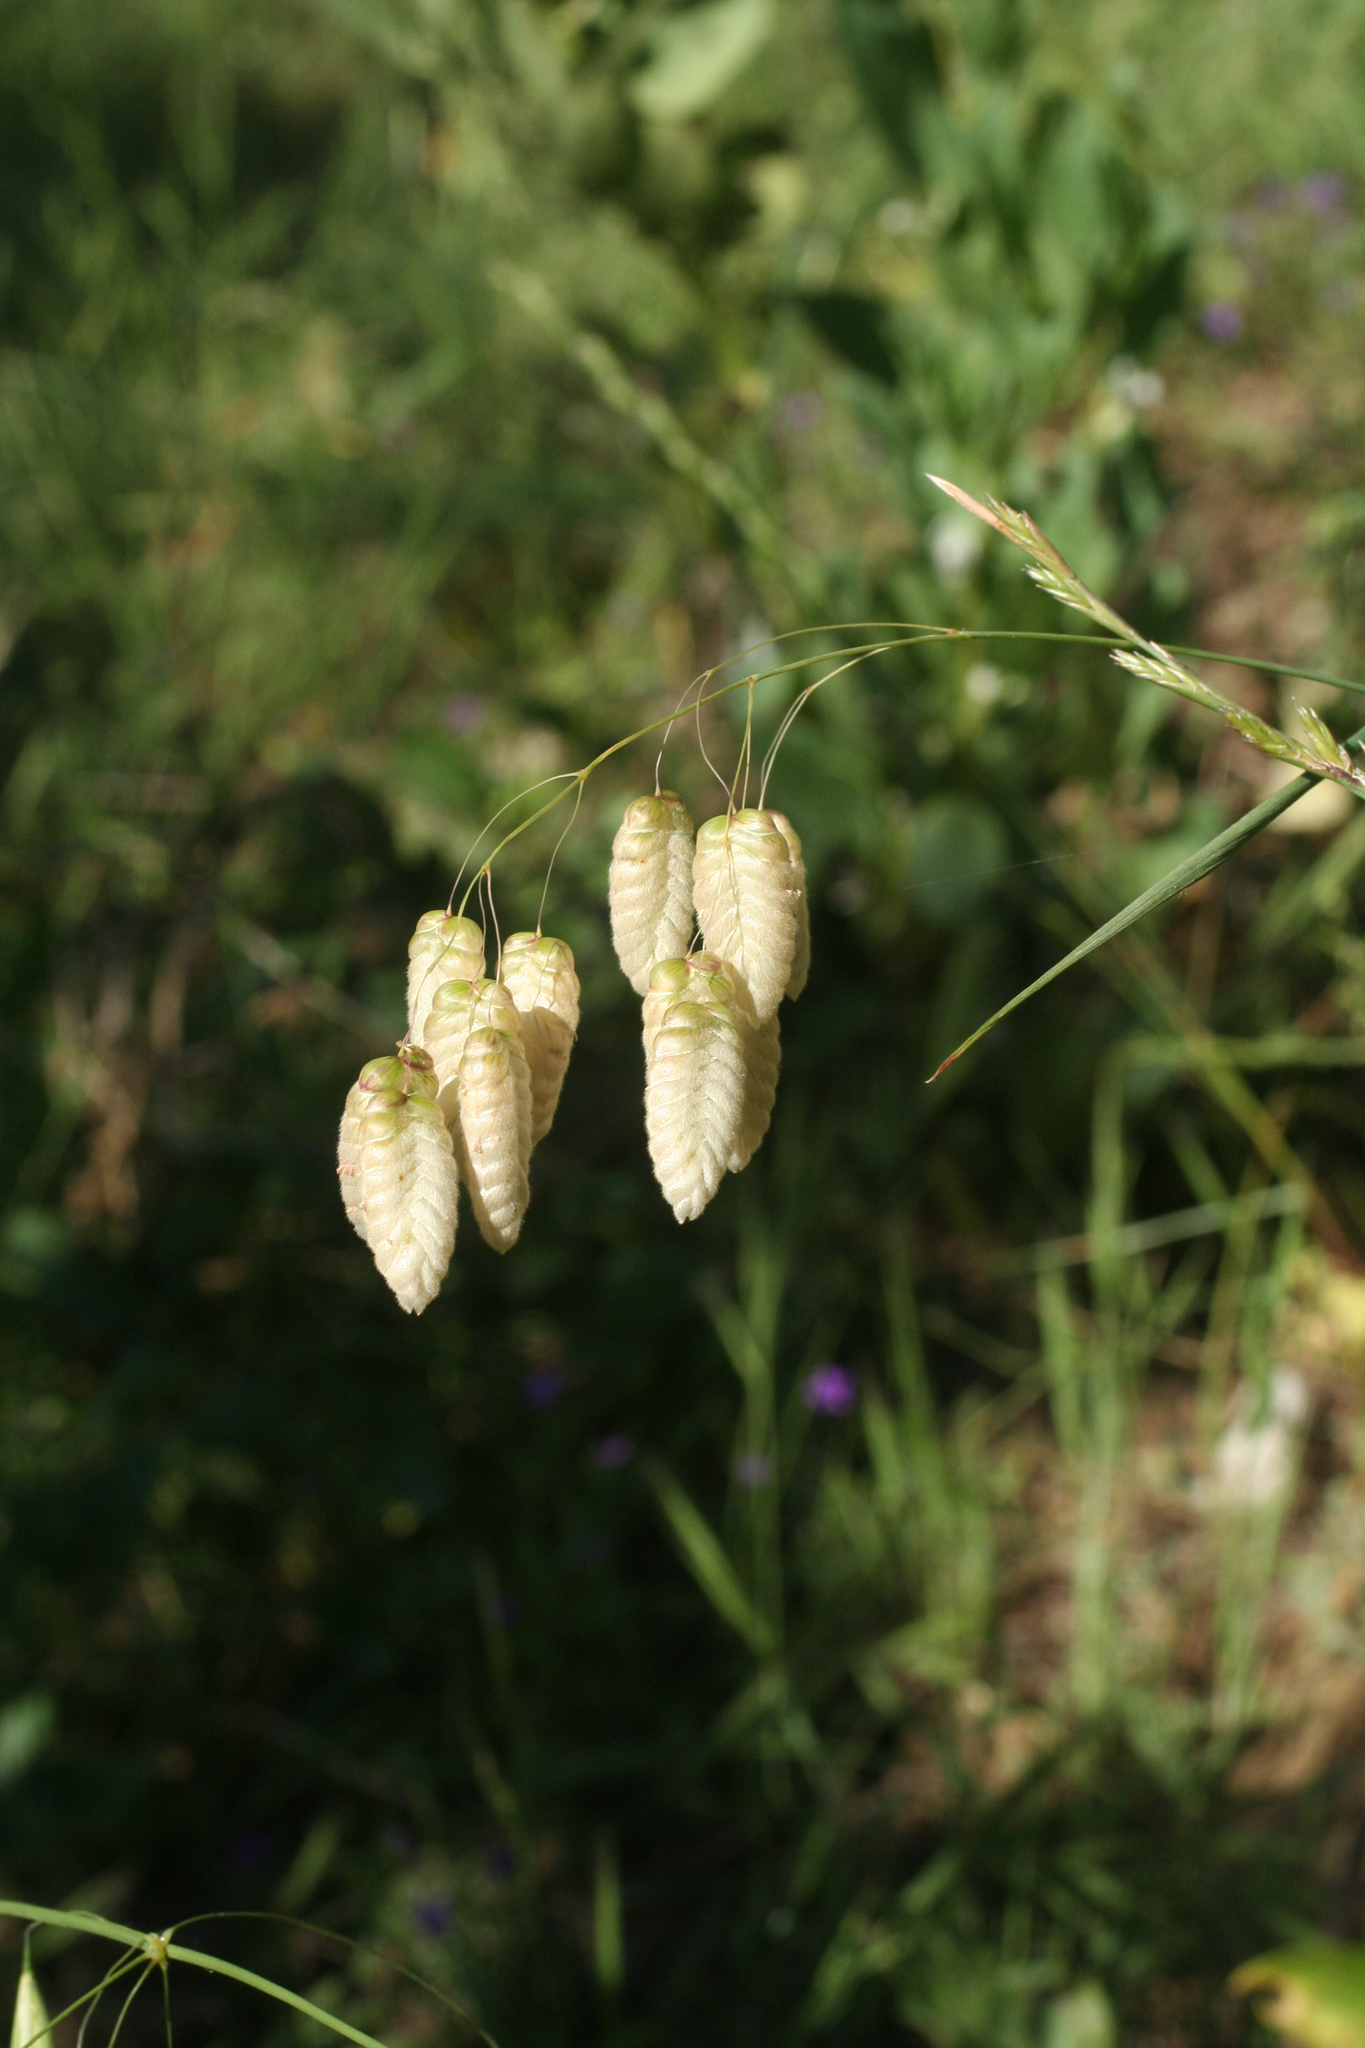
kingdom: Plantae
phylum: Tracheophyta
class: Liliopsida
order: Poales
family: Poaceae
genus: Briza
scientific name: Briza maxima
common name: Big quakinggrass
